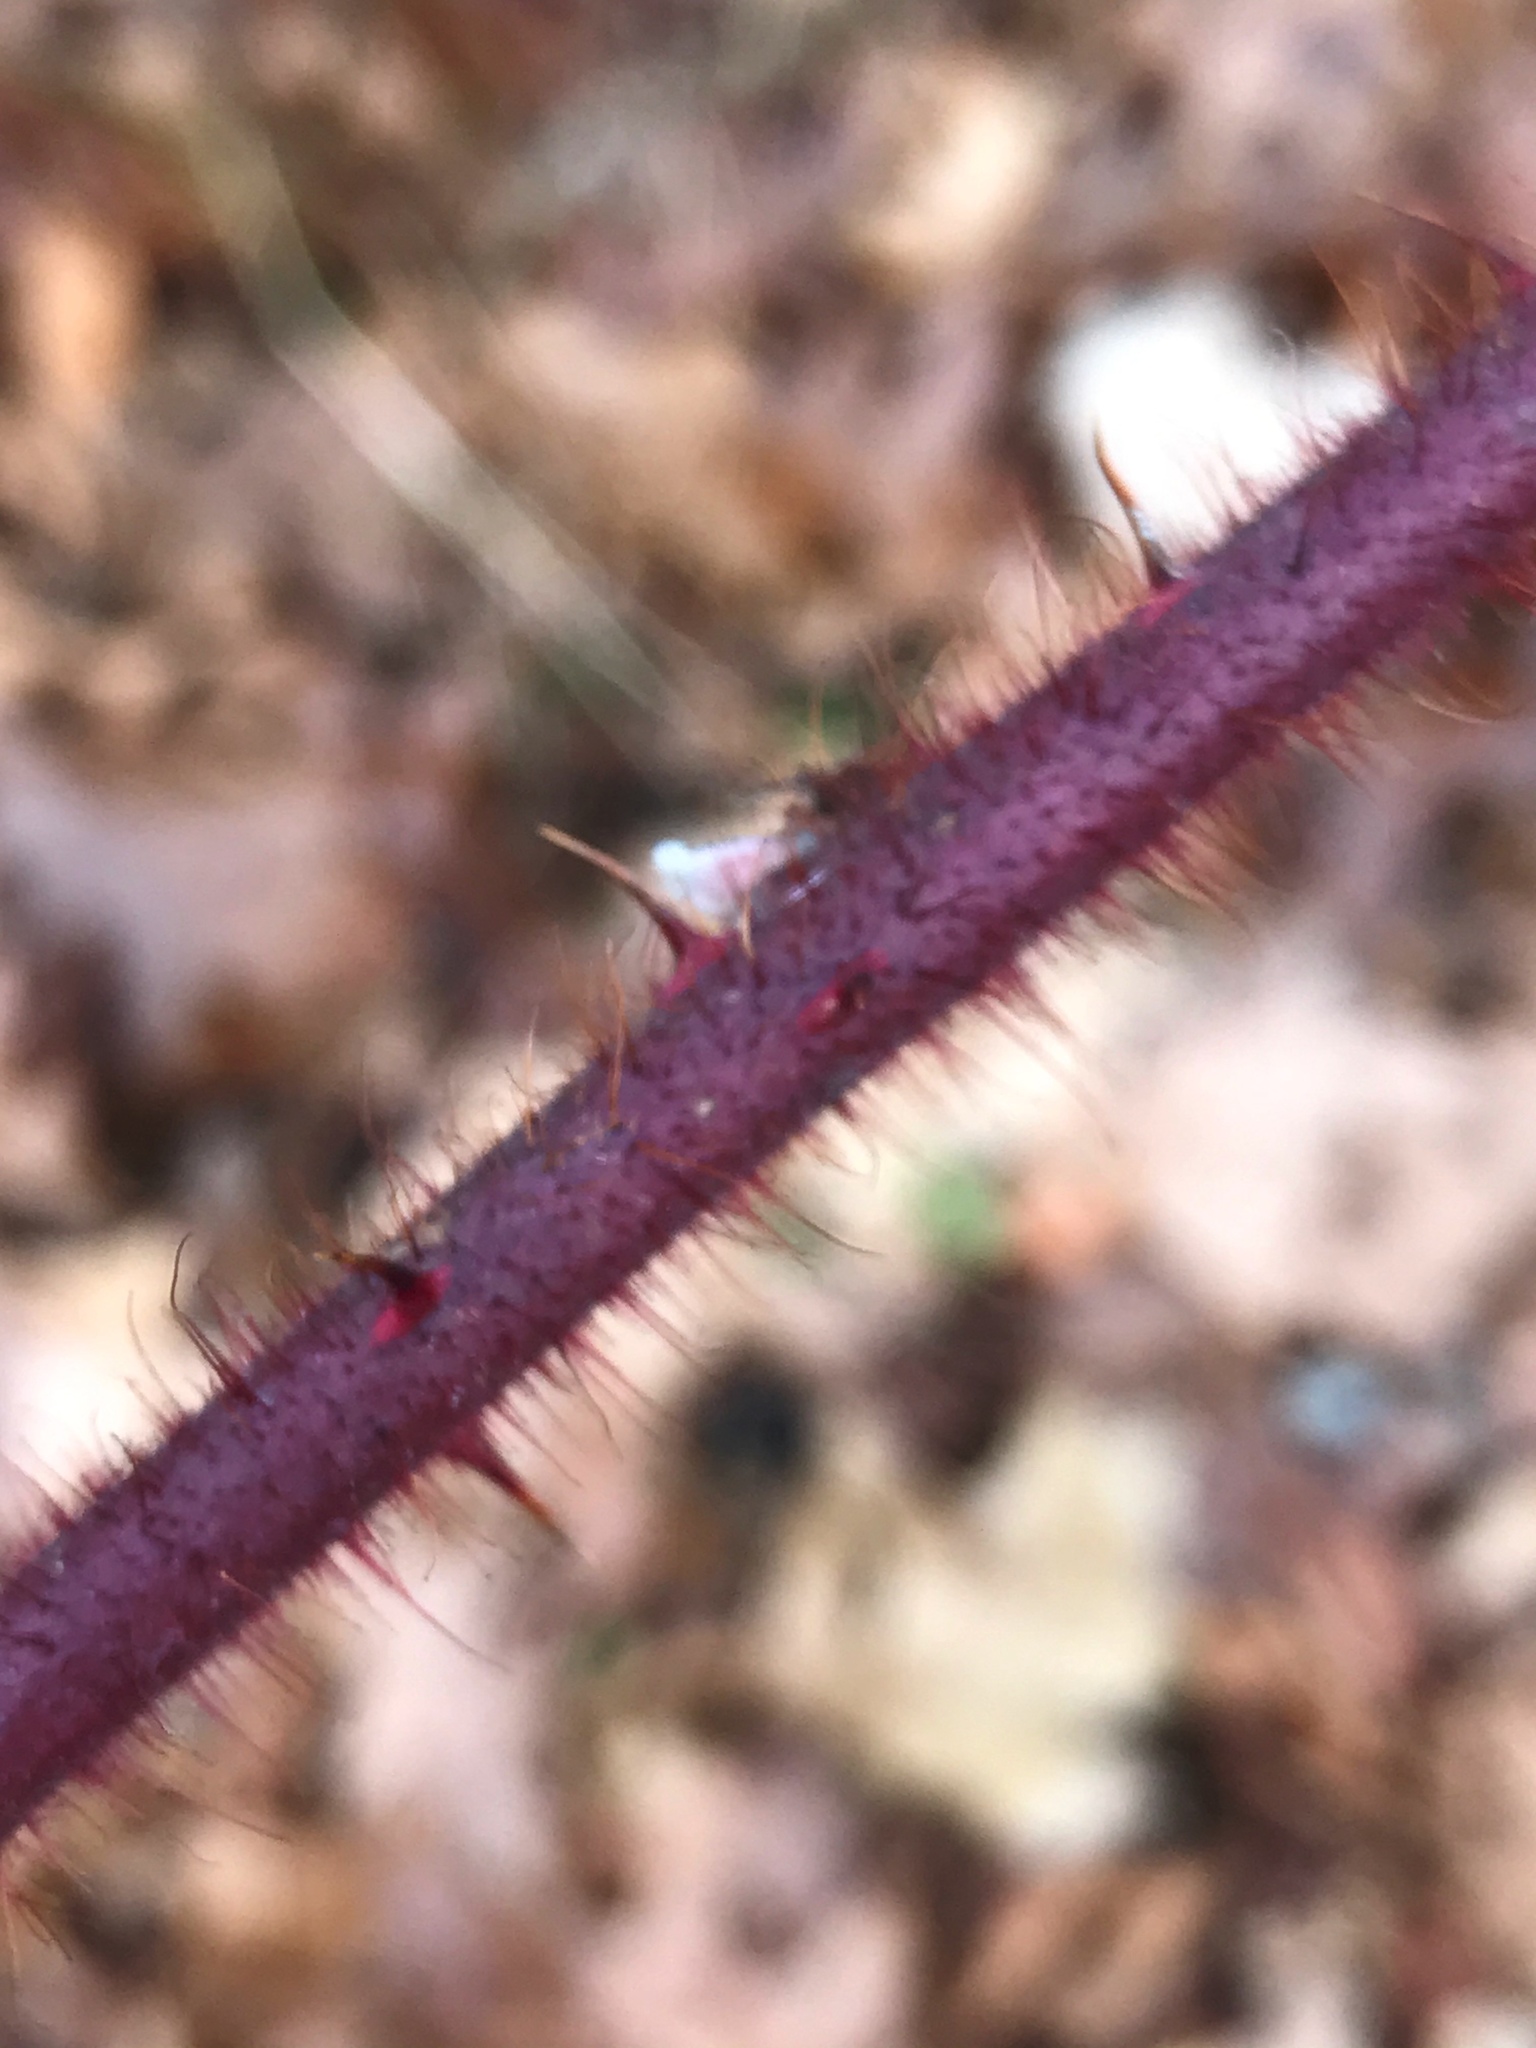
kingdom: Plantae
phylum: Tracheophyta
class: Magnoliopsida
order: Rosales
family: Rosaceae
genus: Rubus
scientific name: Rubus phoenicolasius
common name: Japanese wineberry
